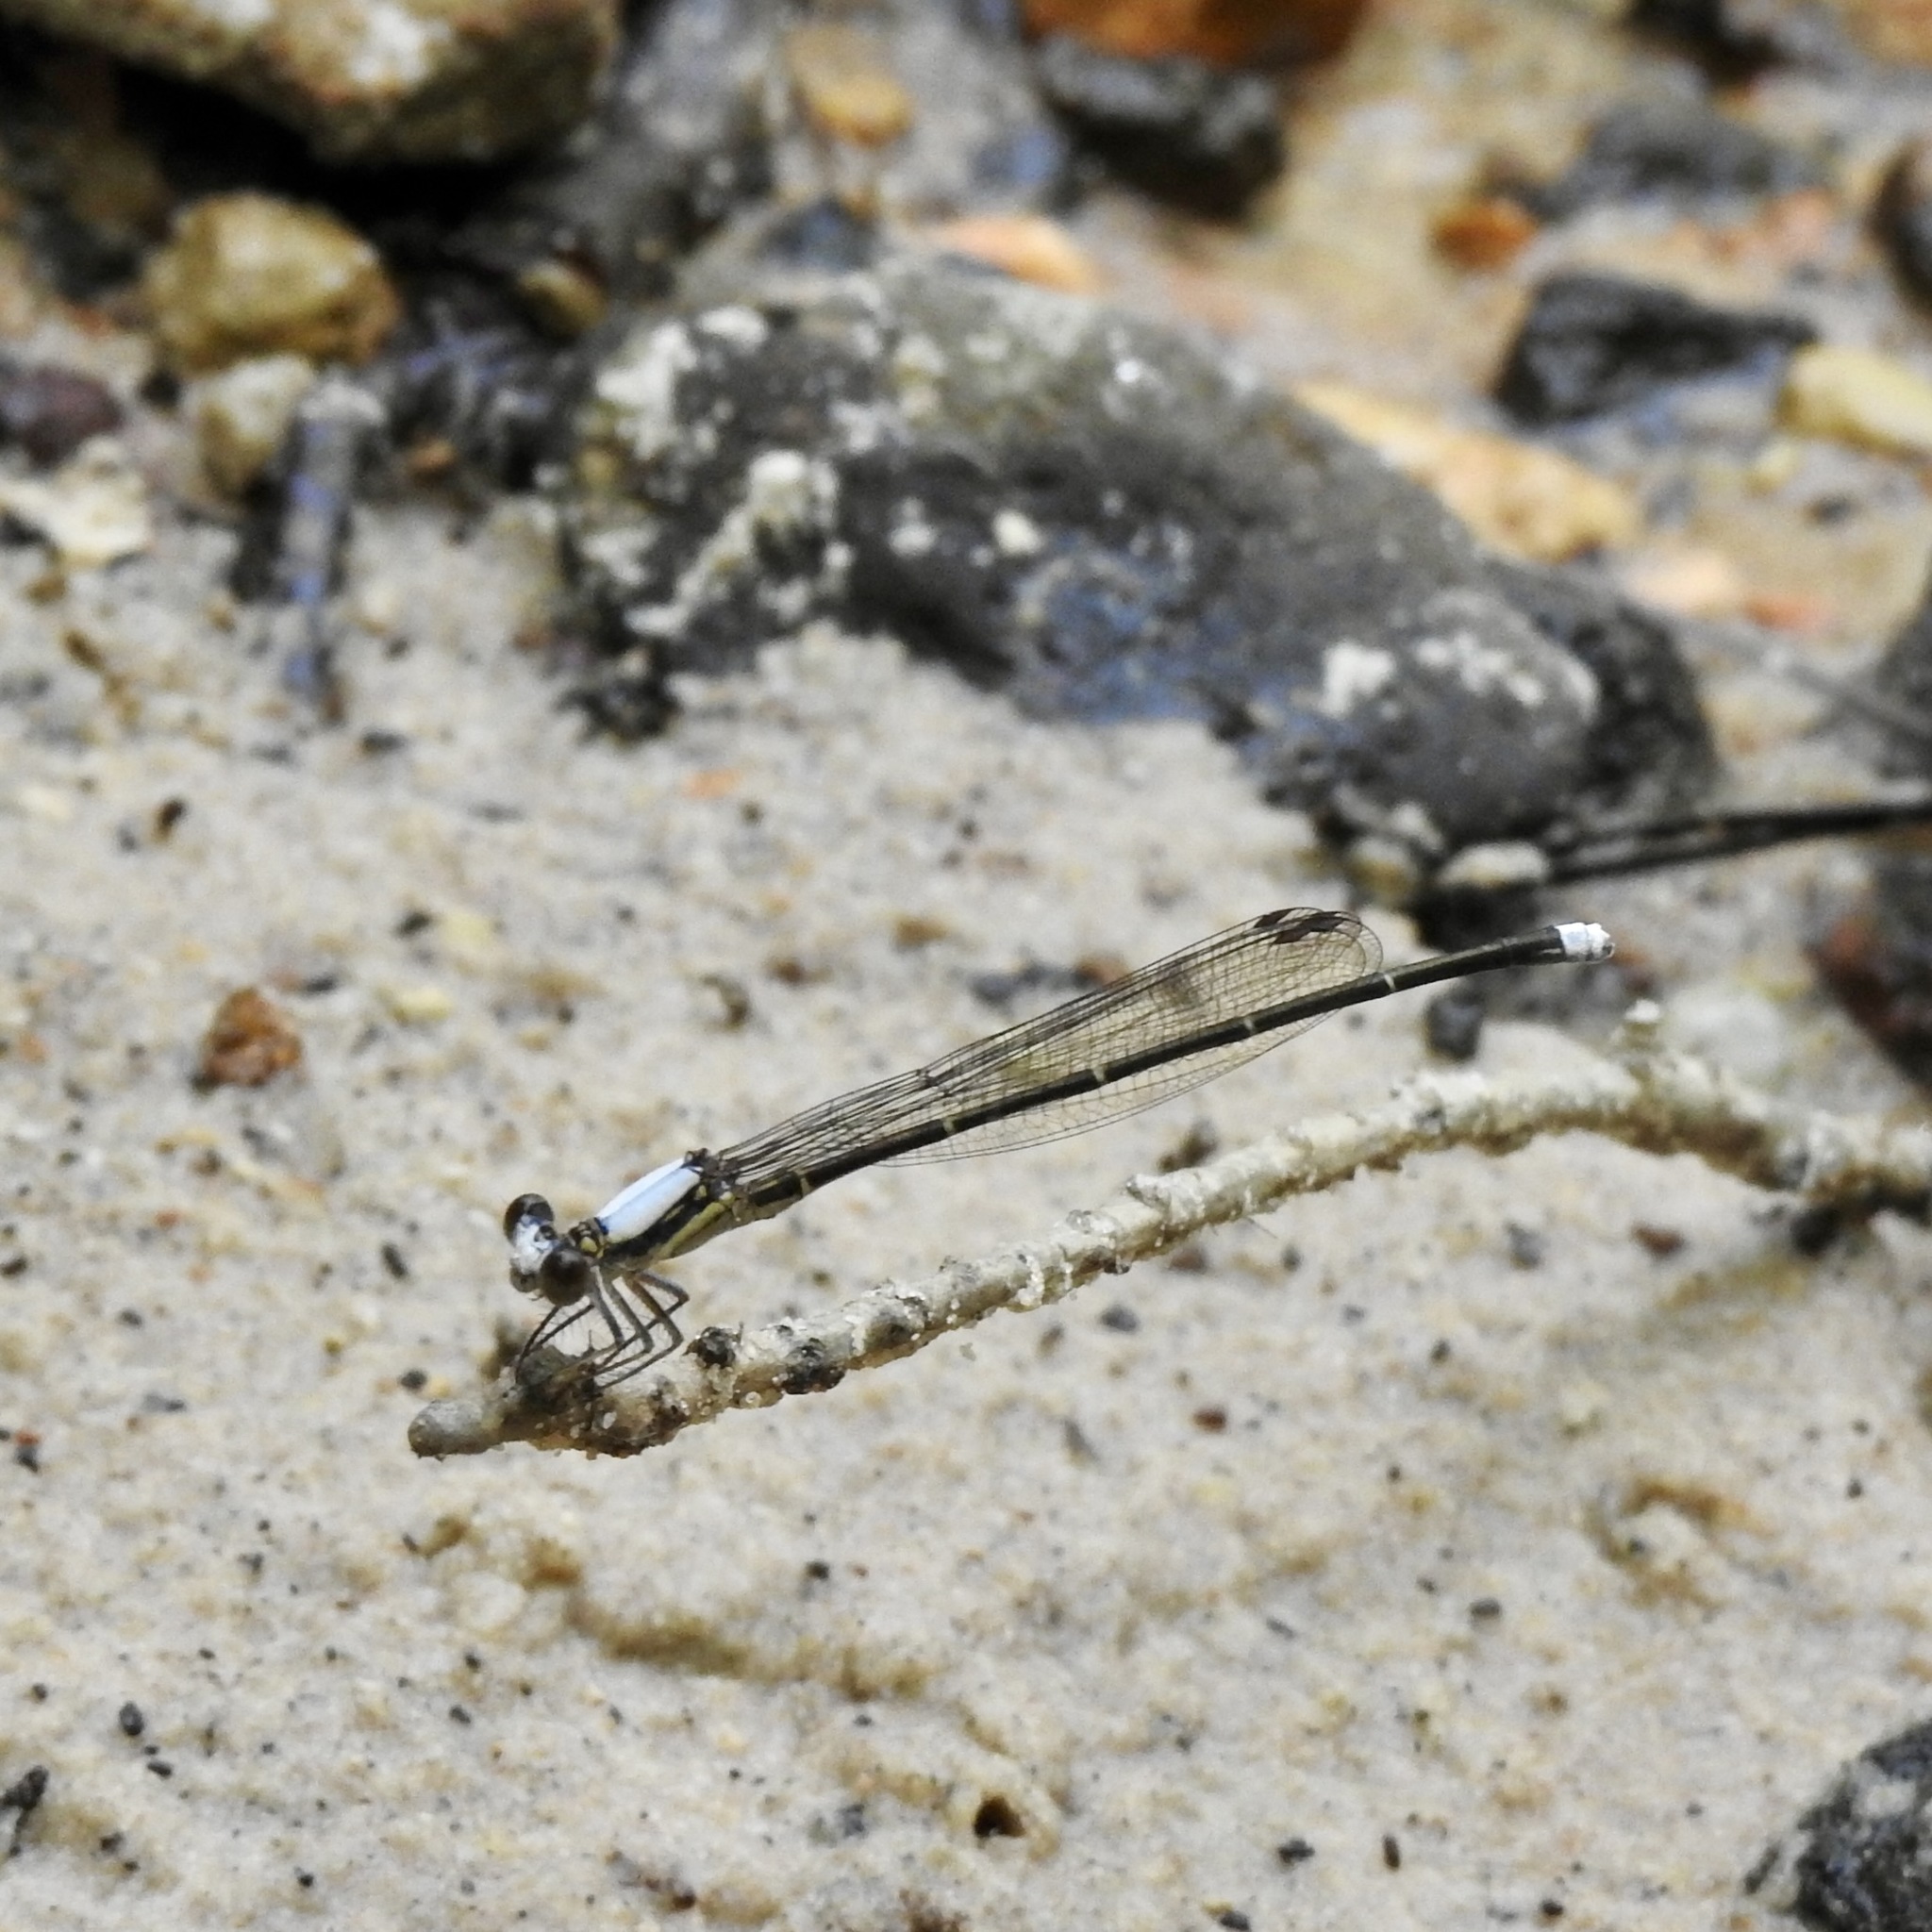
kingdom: Animalia
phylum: Arthropoda
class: Insecta
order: Odonata
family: Coenagrionidae
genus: Argia
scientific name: Argia moesta
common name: Powdered dancer
